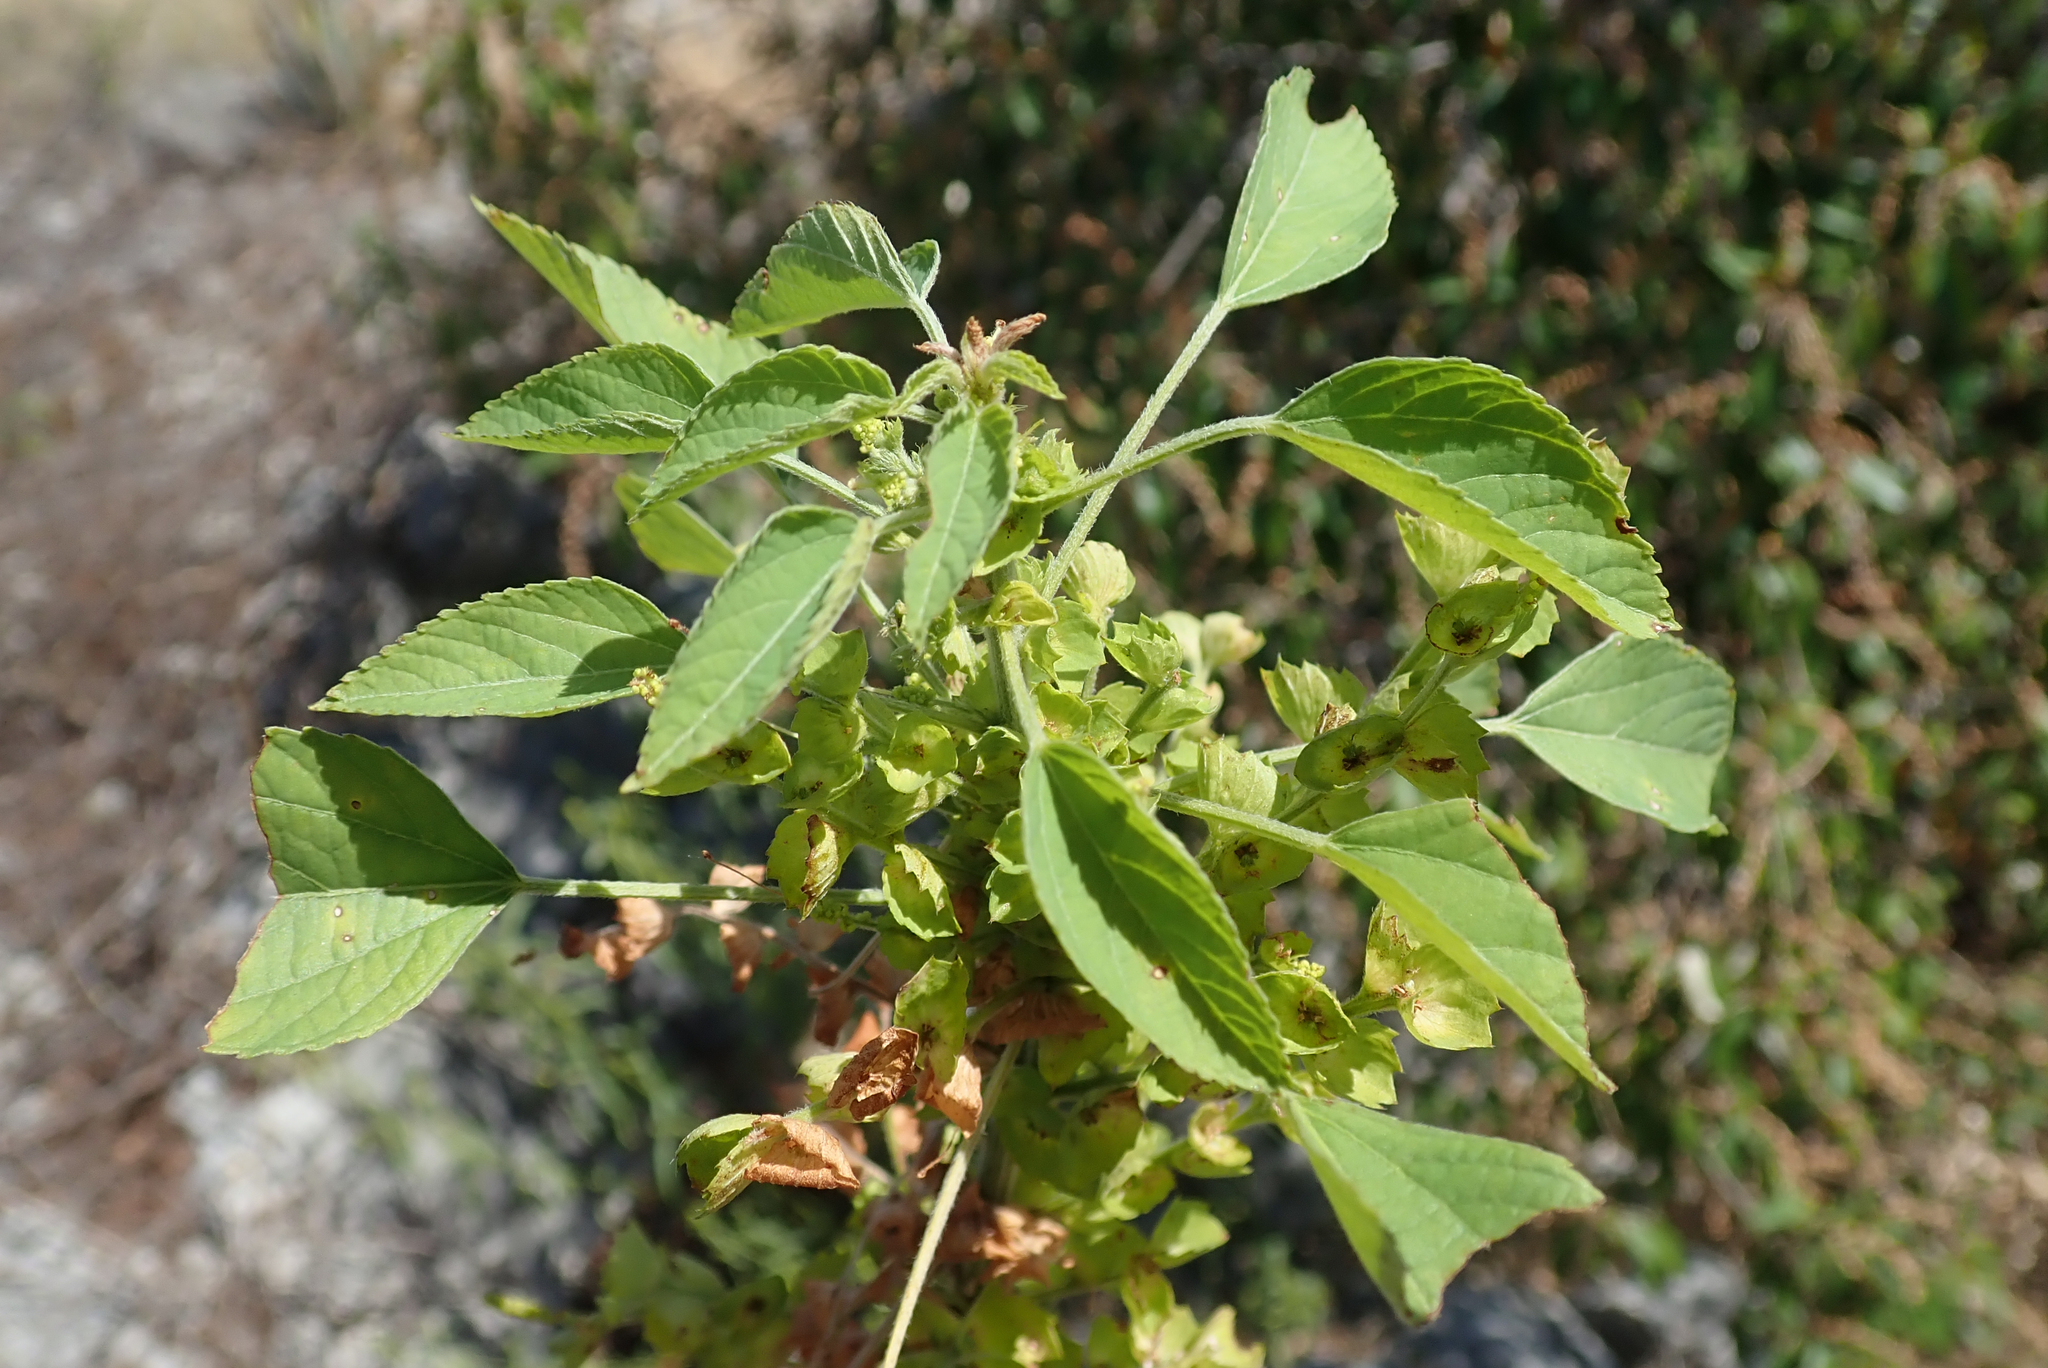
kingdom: Plantae
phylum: Tracheophyta
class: Magnoliopsida
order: Malpighiales
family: Euphorbiaceae
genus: Acalypha
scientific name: Acalypha indica
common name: Indian acalypha
